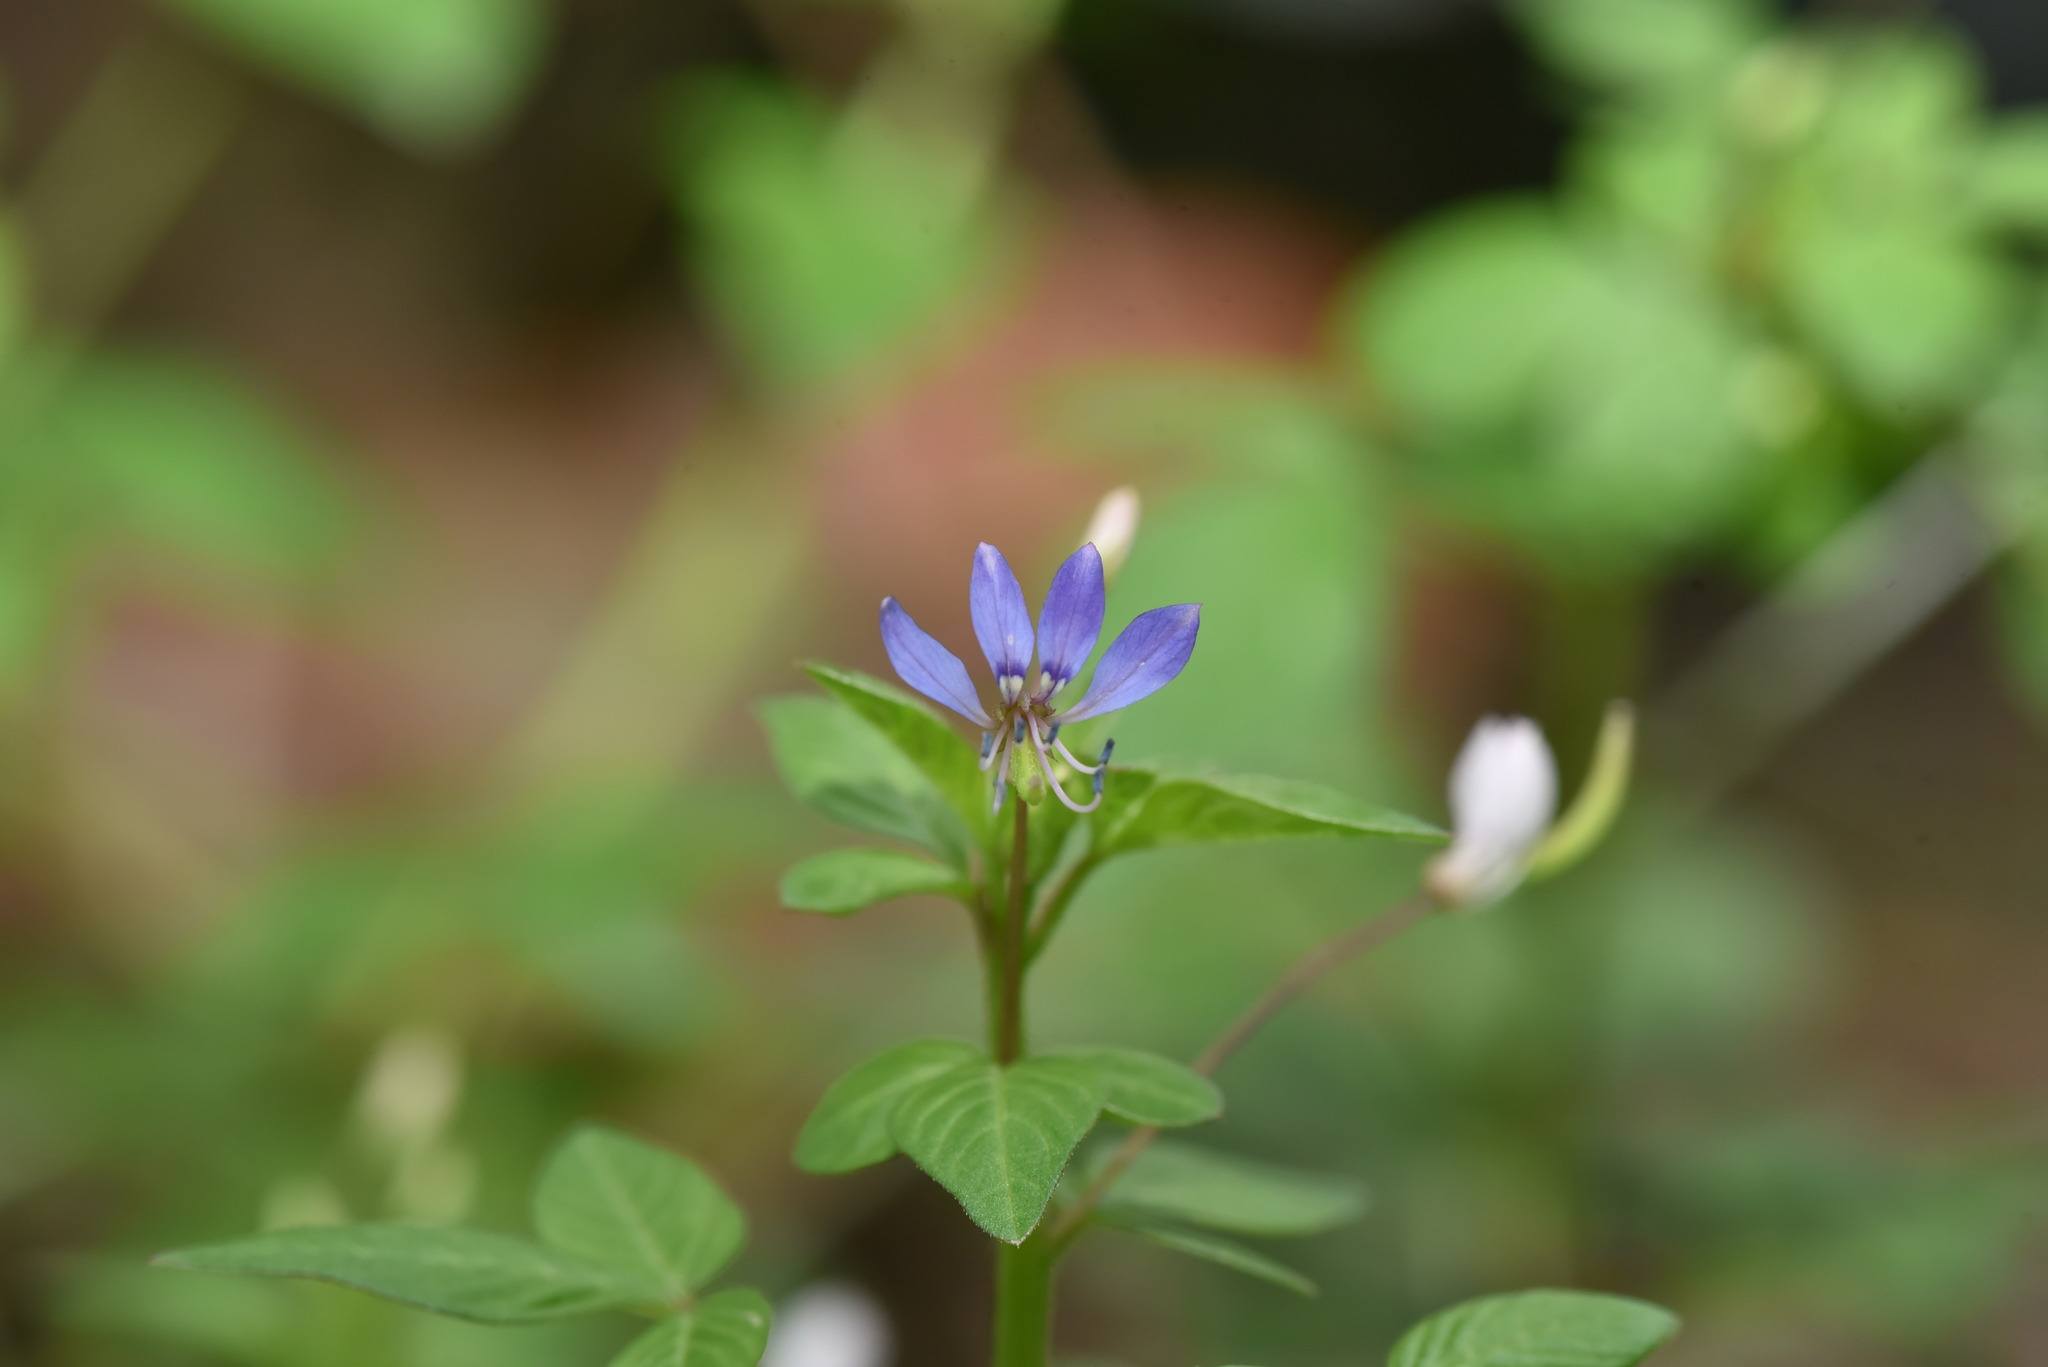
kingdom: Plantae
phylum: Tracheophyta
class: Magnoliopsida
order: Brassicales
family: Cleomaceae
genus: Sieruela
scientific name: Sieruela rutidosperma
